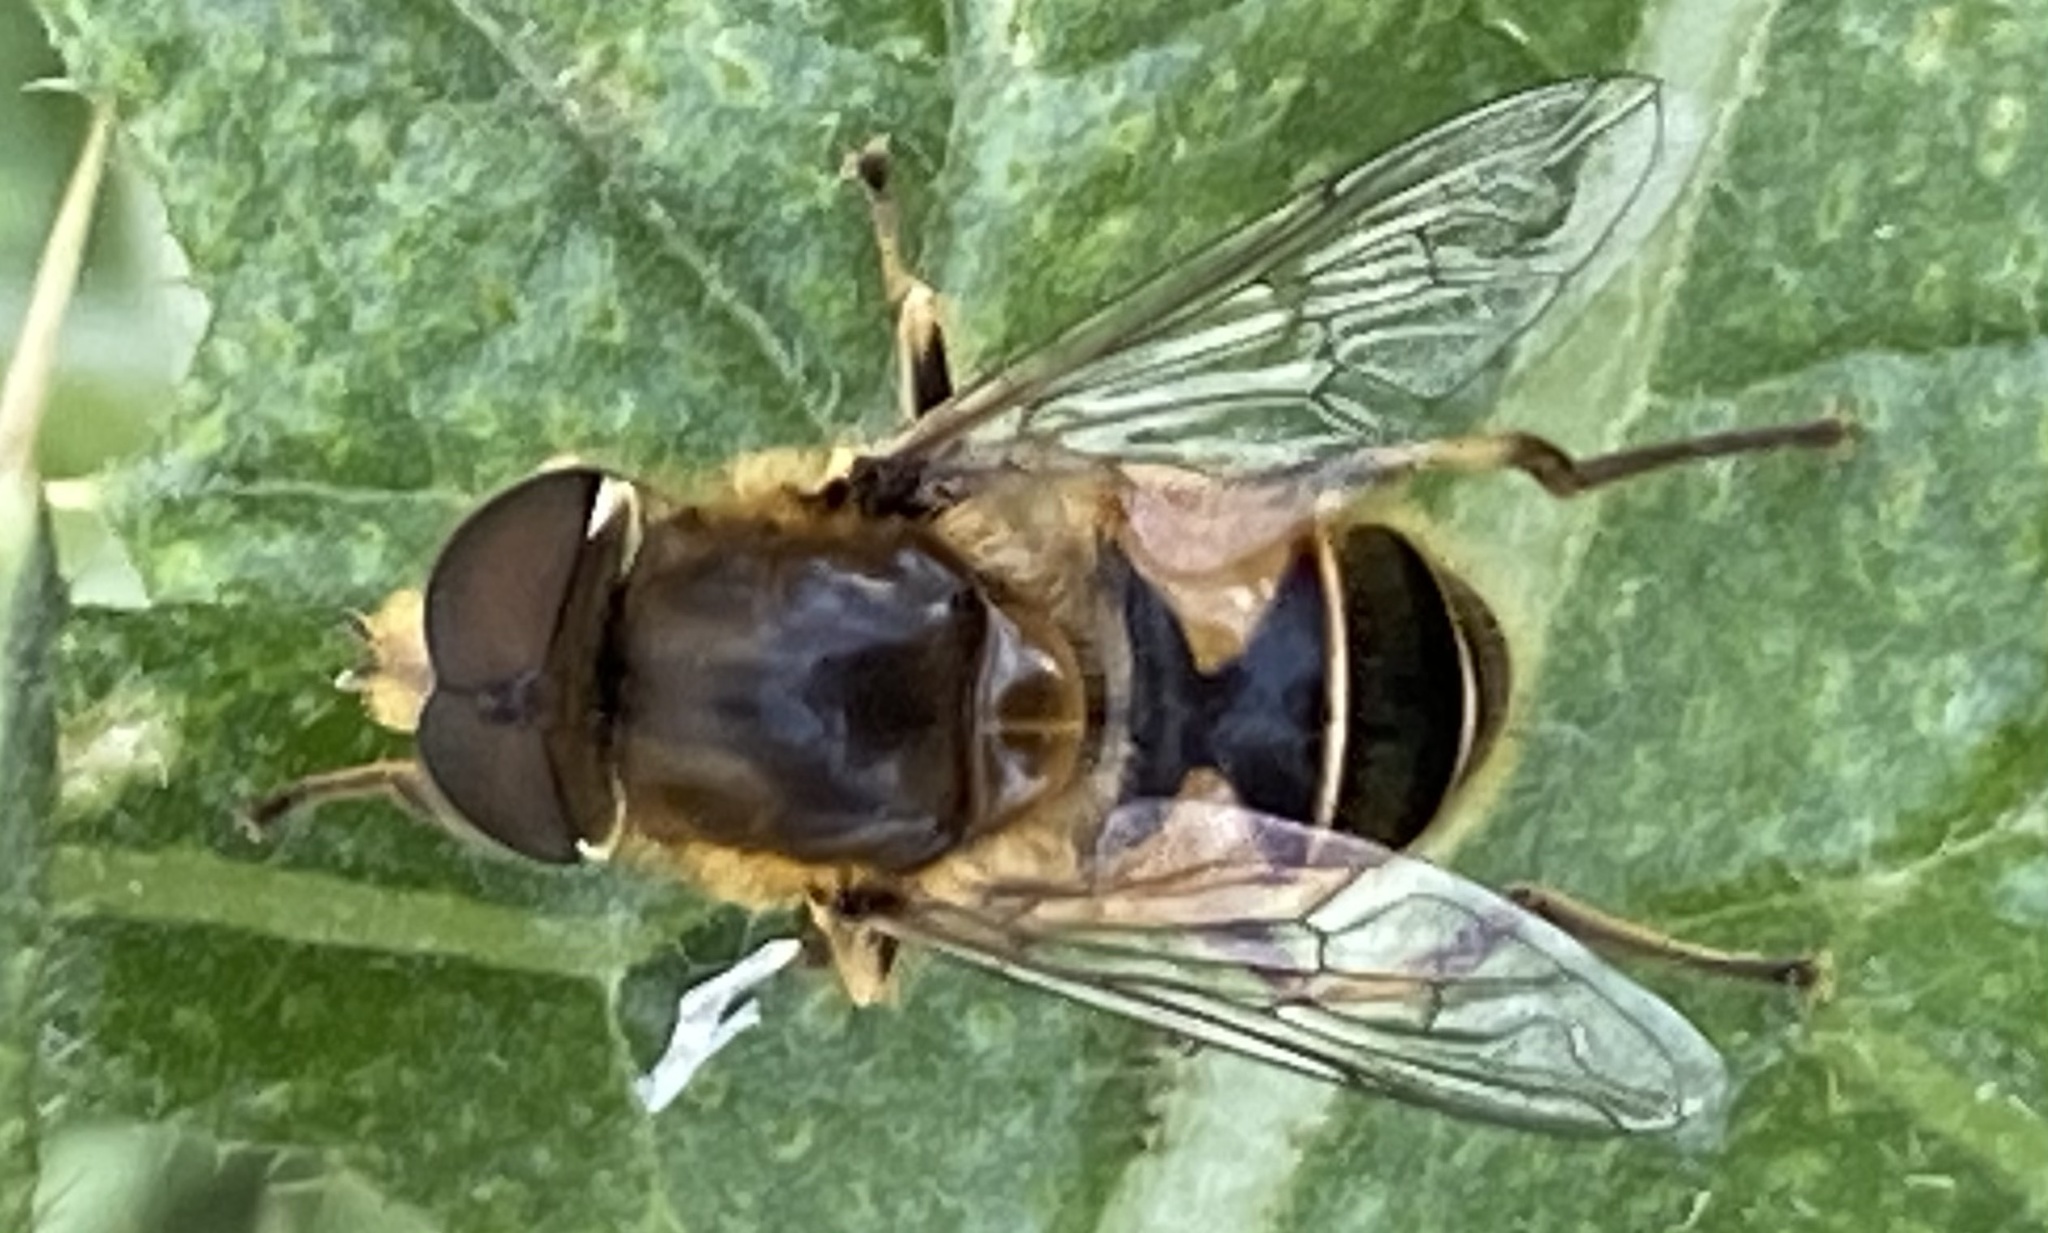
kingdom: Animalia
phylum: Arthropoda
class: Insecta
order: Diptera
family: Syrphidae
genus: Eristalis
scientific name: Eristalis nemorum
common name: Orange-spined drone fly
